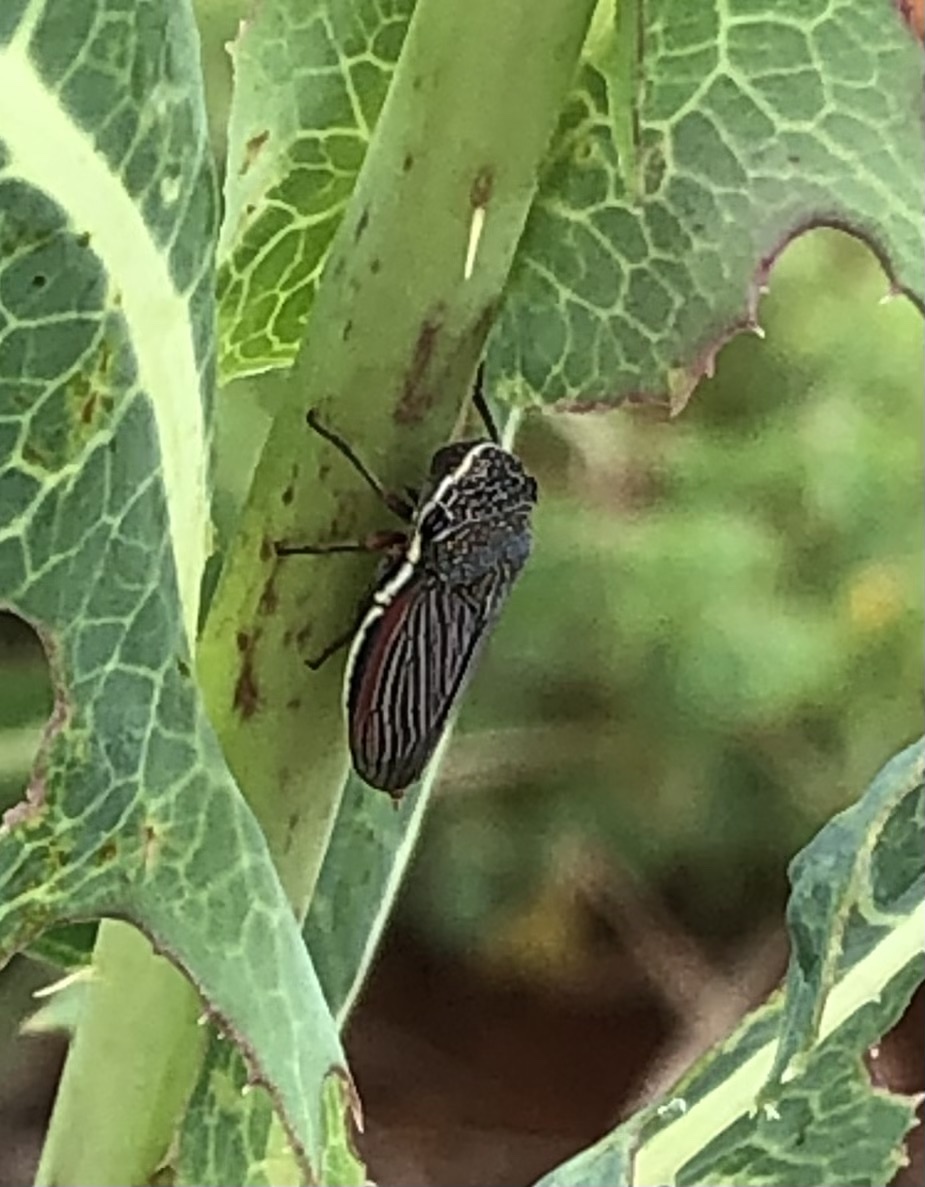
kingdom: Animalia
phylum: Arthropoda
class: Insecta
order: Hemiptera
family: Cicadellidae
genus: Cuerna
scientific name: Cuerna costalis
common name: Lateral-lined sharpshooter
